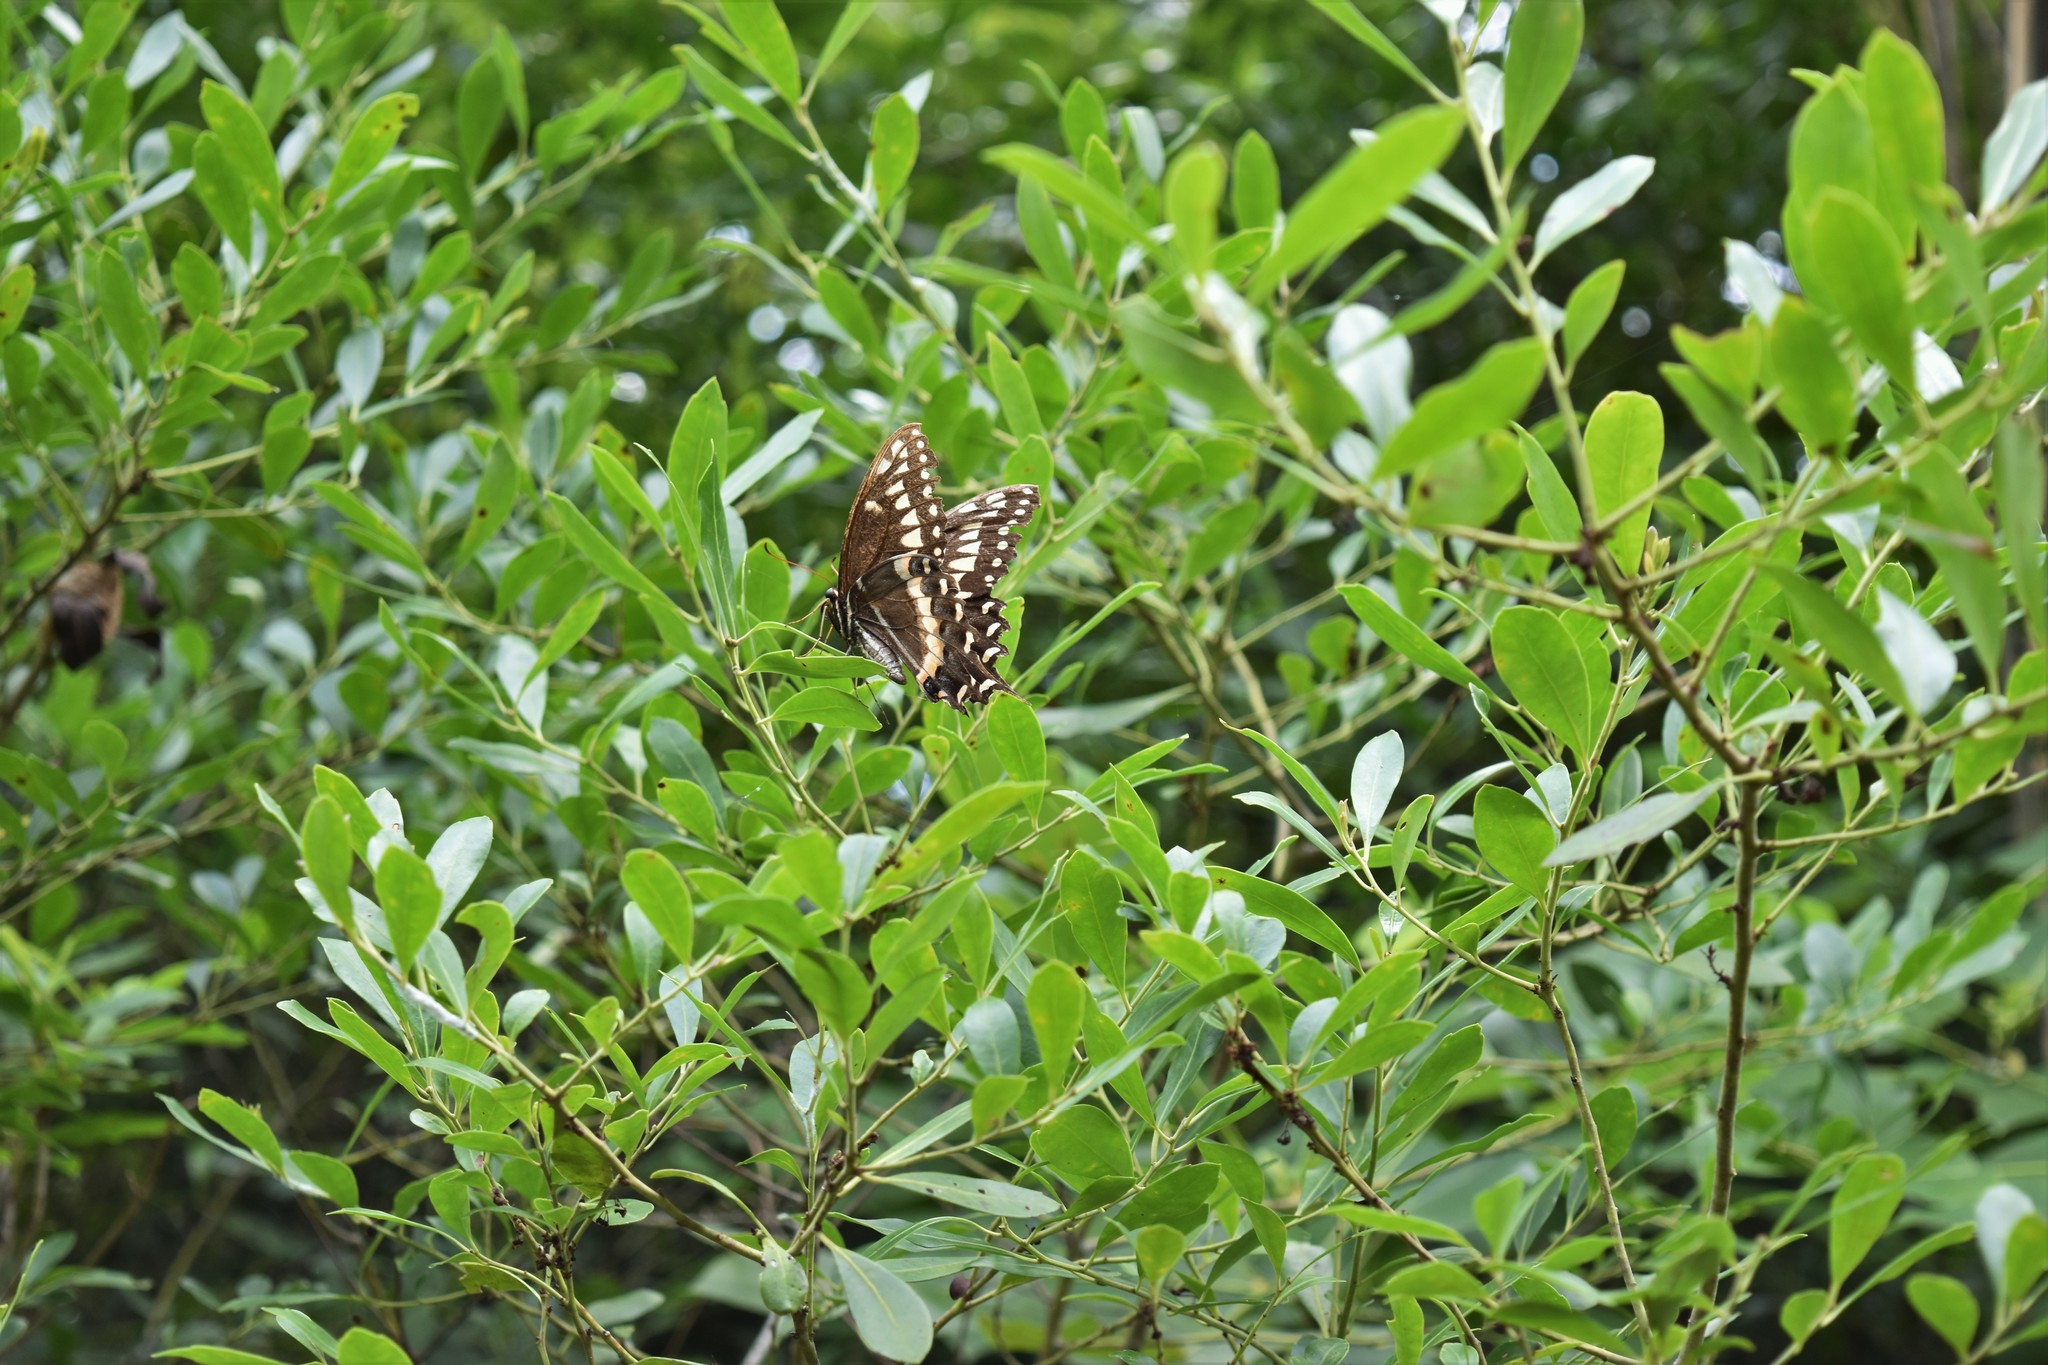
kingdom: Animalia
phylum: Arthropoda
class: Insecta
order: Lepidoptera
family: Papilionidae
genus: Papilio
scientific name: Papilio palamedes
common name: Palamedes swallowtail
